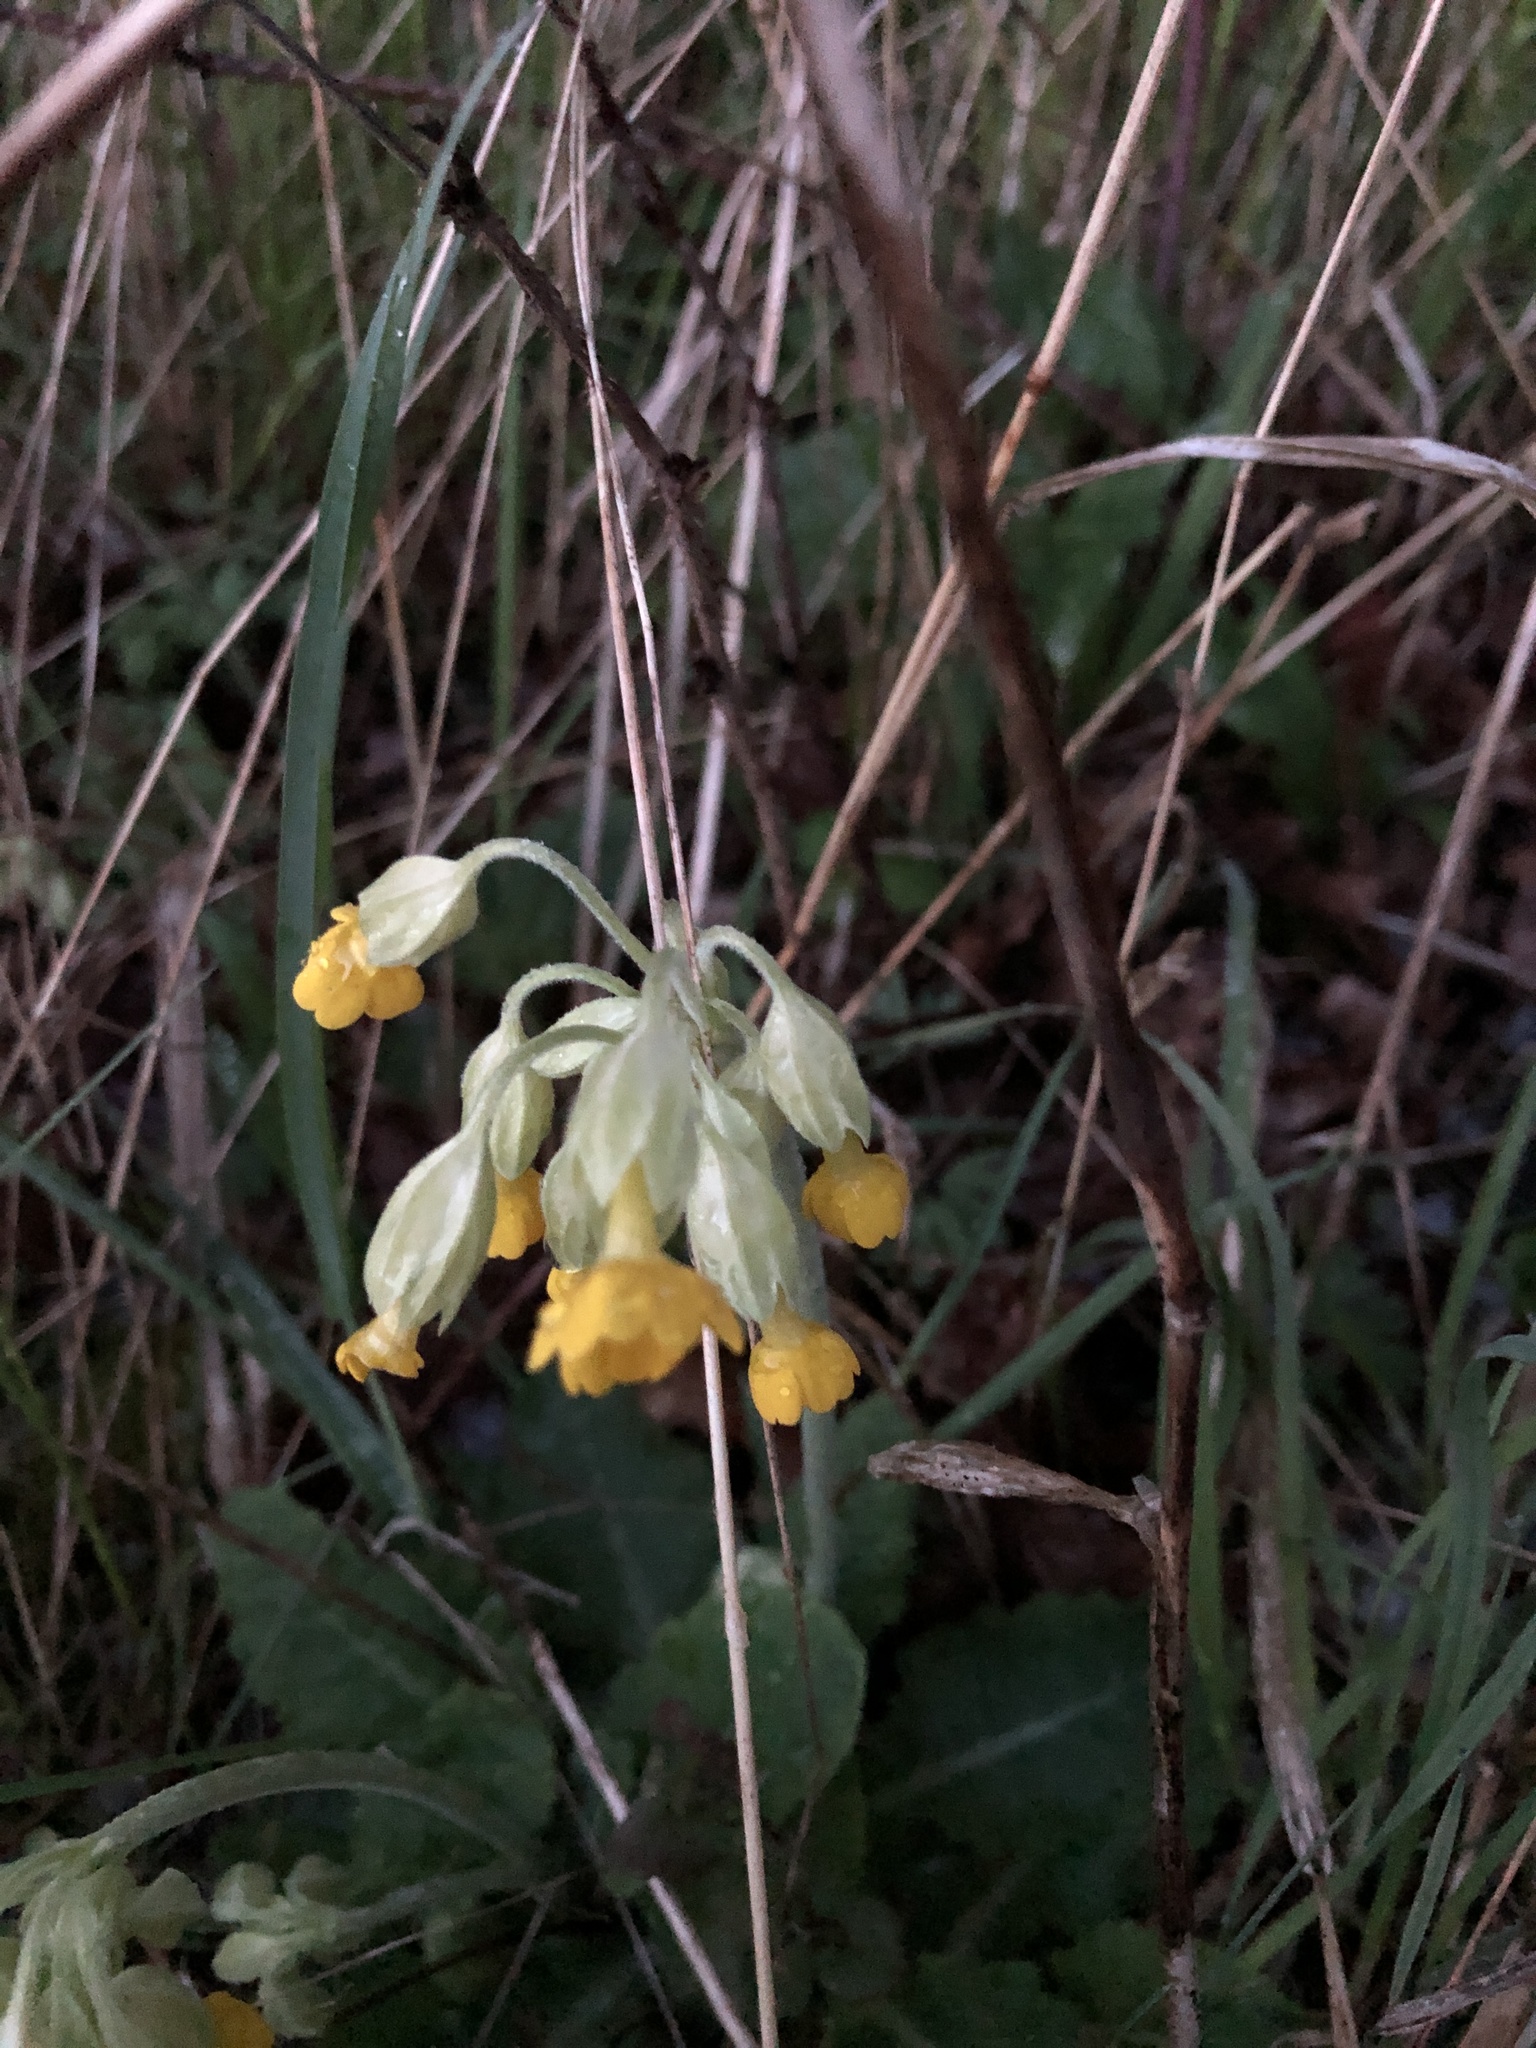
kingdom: Plantae
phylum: Tracheophyta
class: Magnoliopsida
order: Ericales
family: Primulaceae
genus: Primula
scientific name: Primula veris
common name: Cowslip
